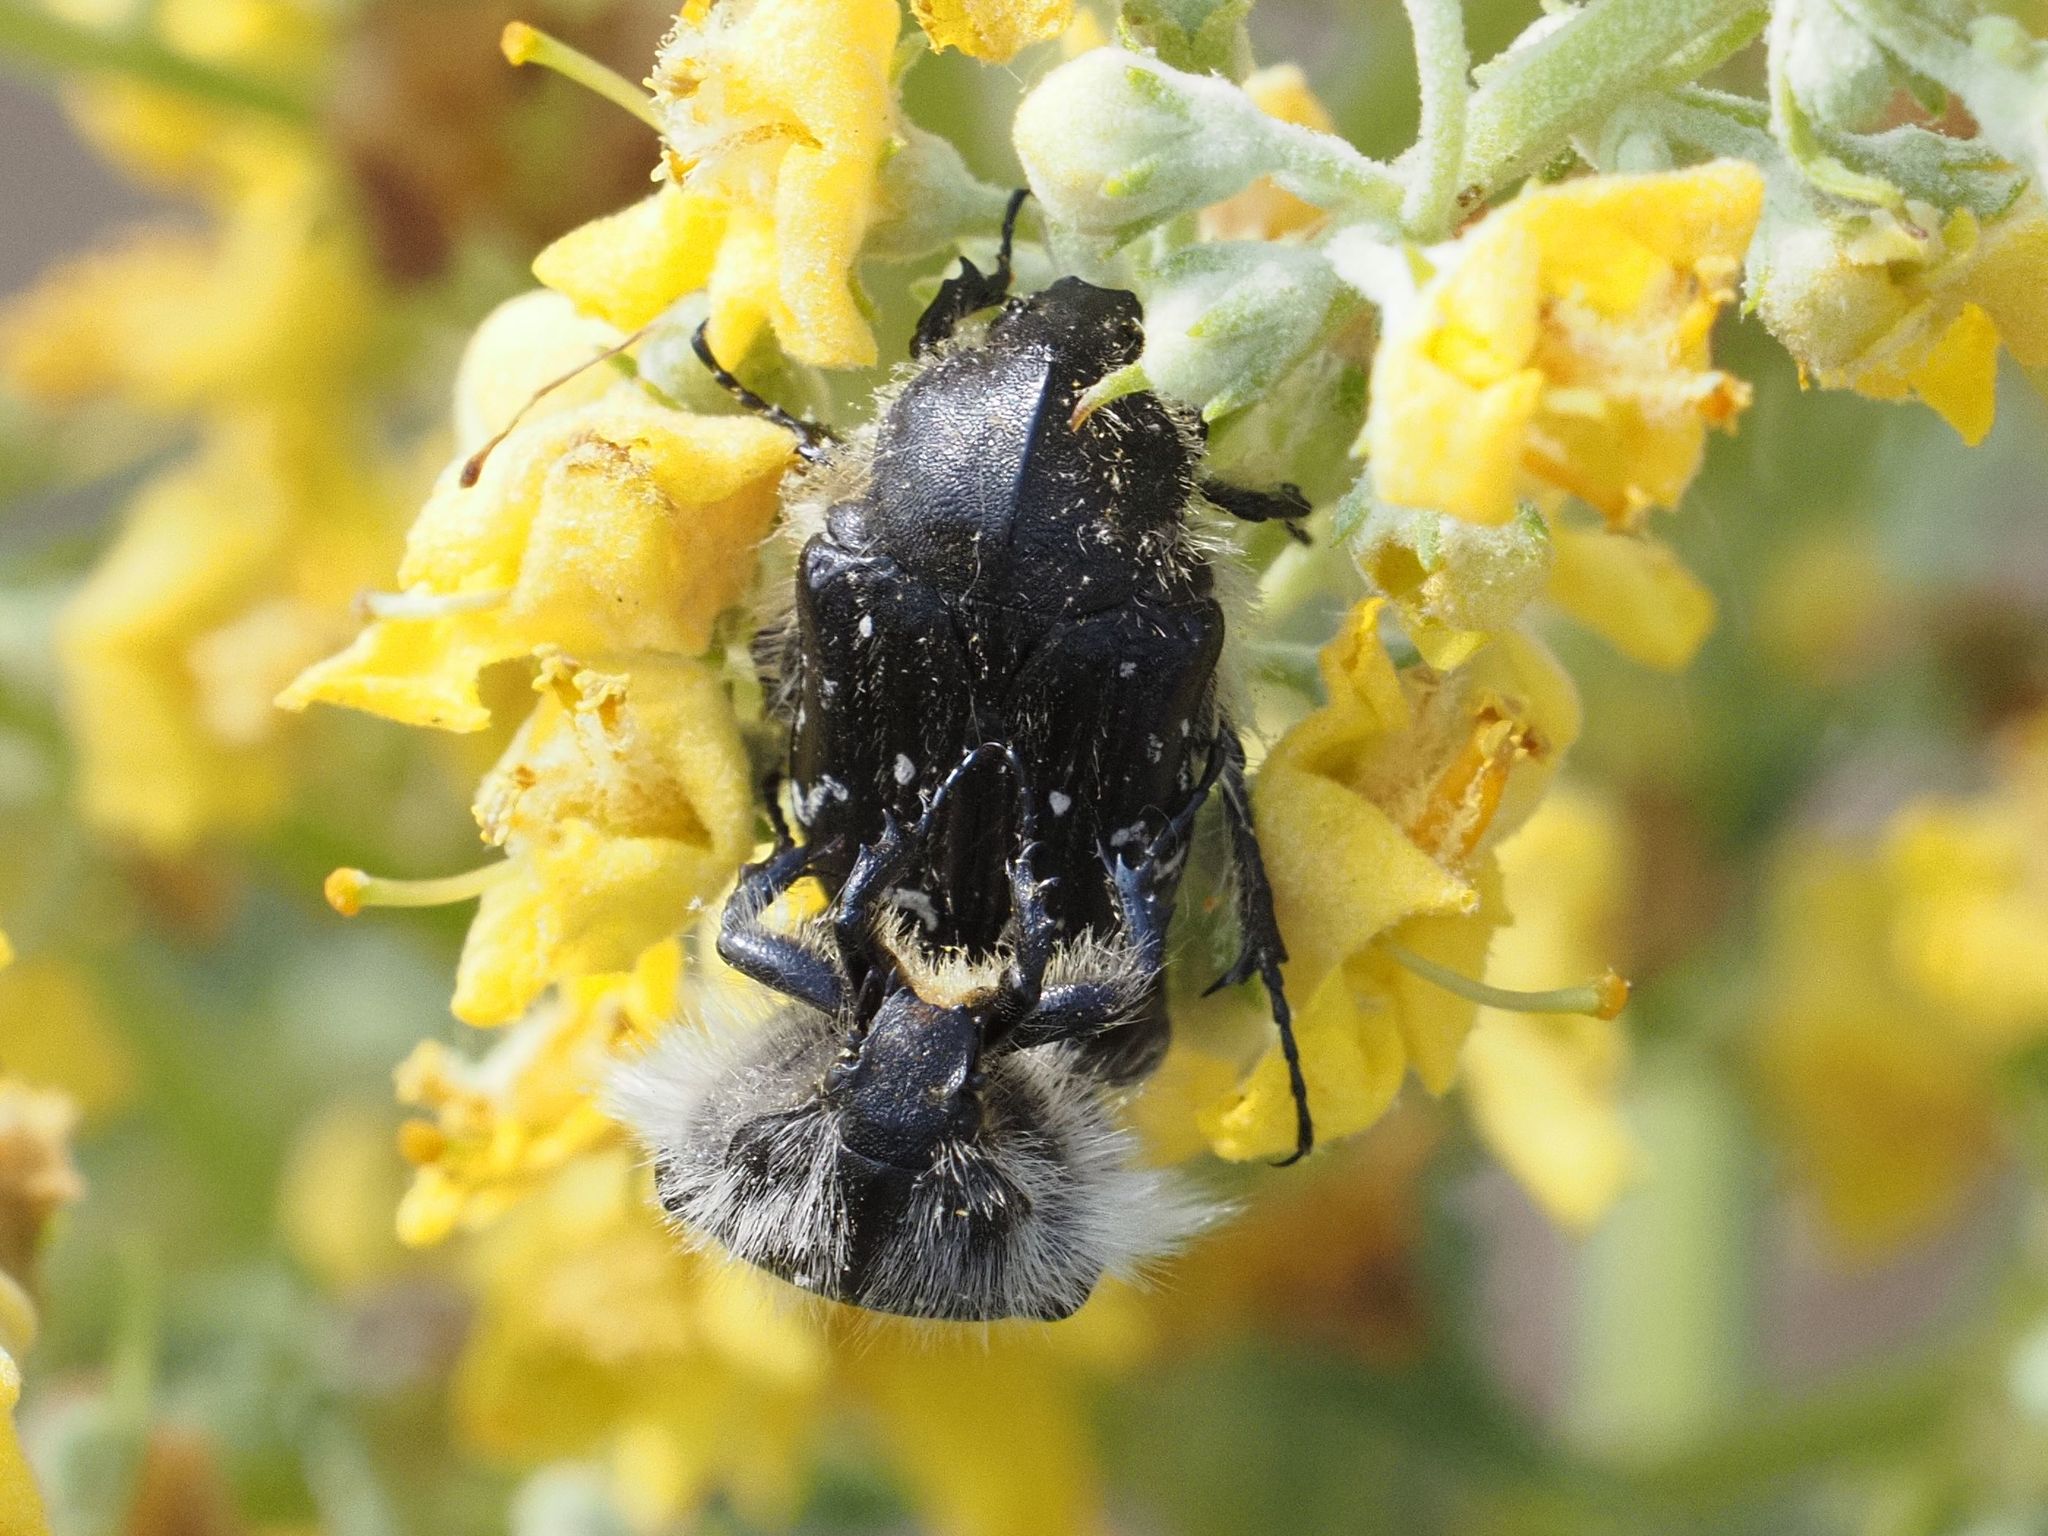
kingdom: Animalia
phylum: Arthropoda
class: Insecta
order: Coleoptera
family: Scarabaeidae
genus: Tropinota
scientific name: Tropinota hirta
